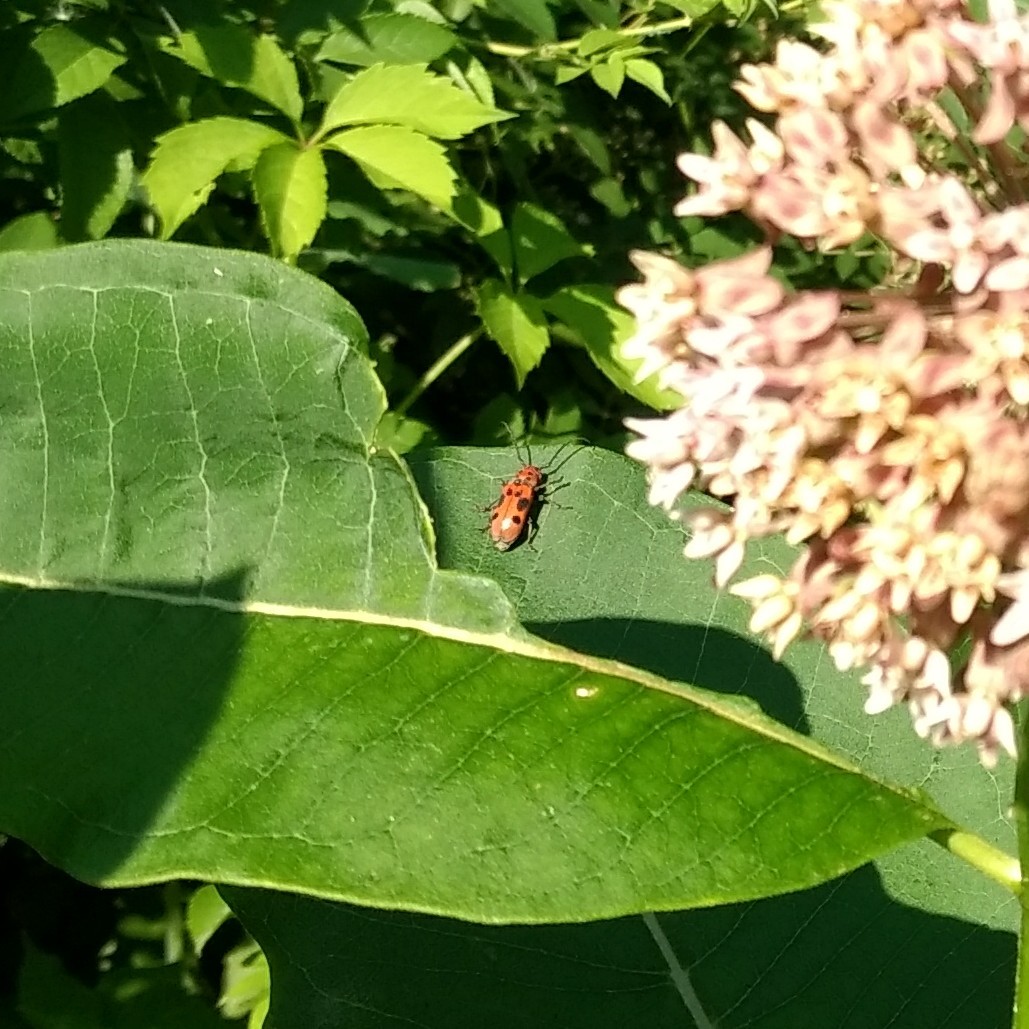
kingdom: Animalia
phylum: Arthropoda
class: Insecta
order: Coleoptera
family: Cerambycidae
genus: Tetraopes
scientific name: Tetraopes tetrophthalmus
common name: Red milkweed beetle
